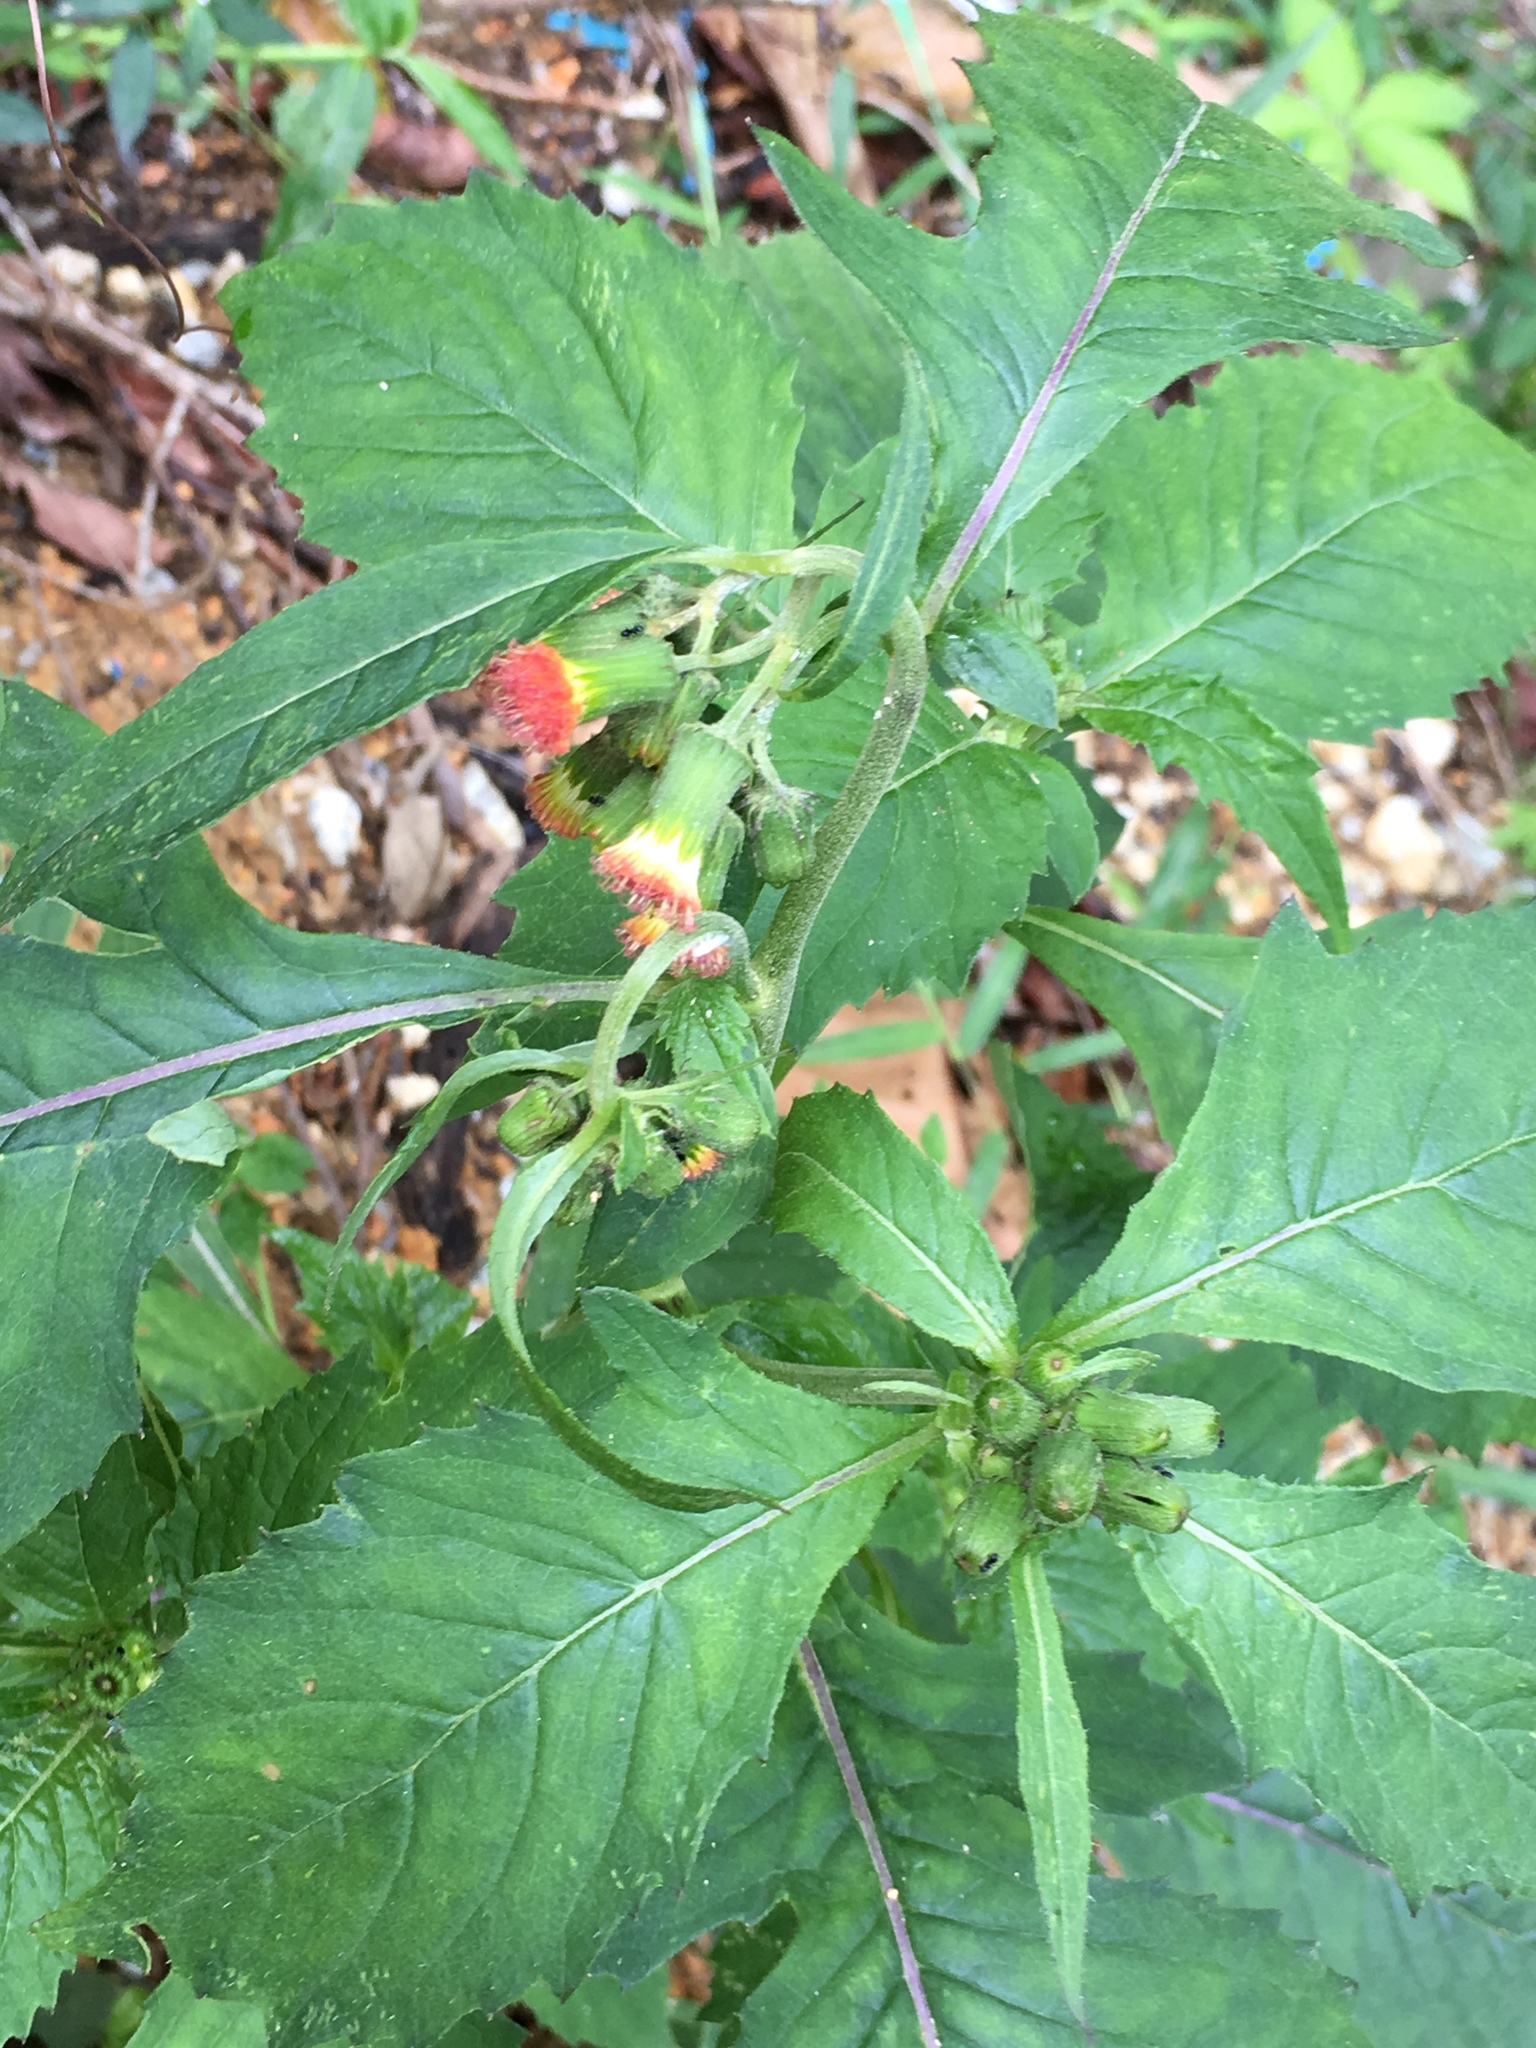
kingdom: Plantae
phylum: Tracheophyta
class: Magnoliopsida
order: Asterales
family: Asteraceae
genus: Erechtites
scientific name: Erechtites valerianifolius
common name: Tropical burnweed
